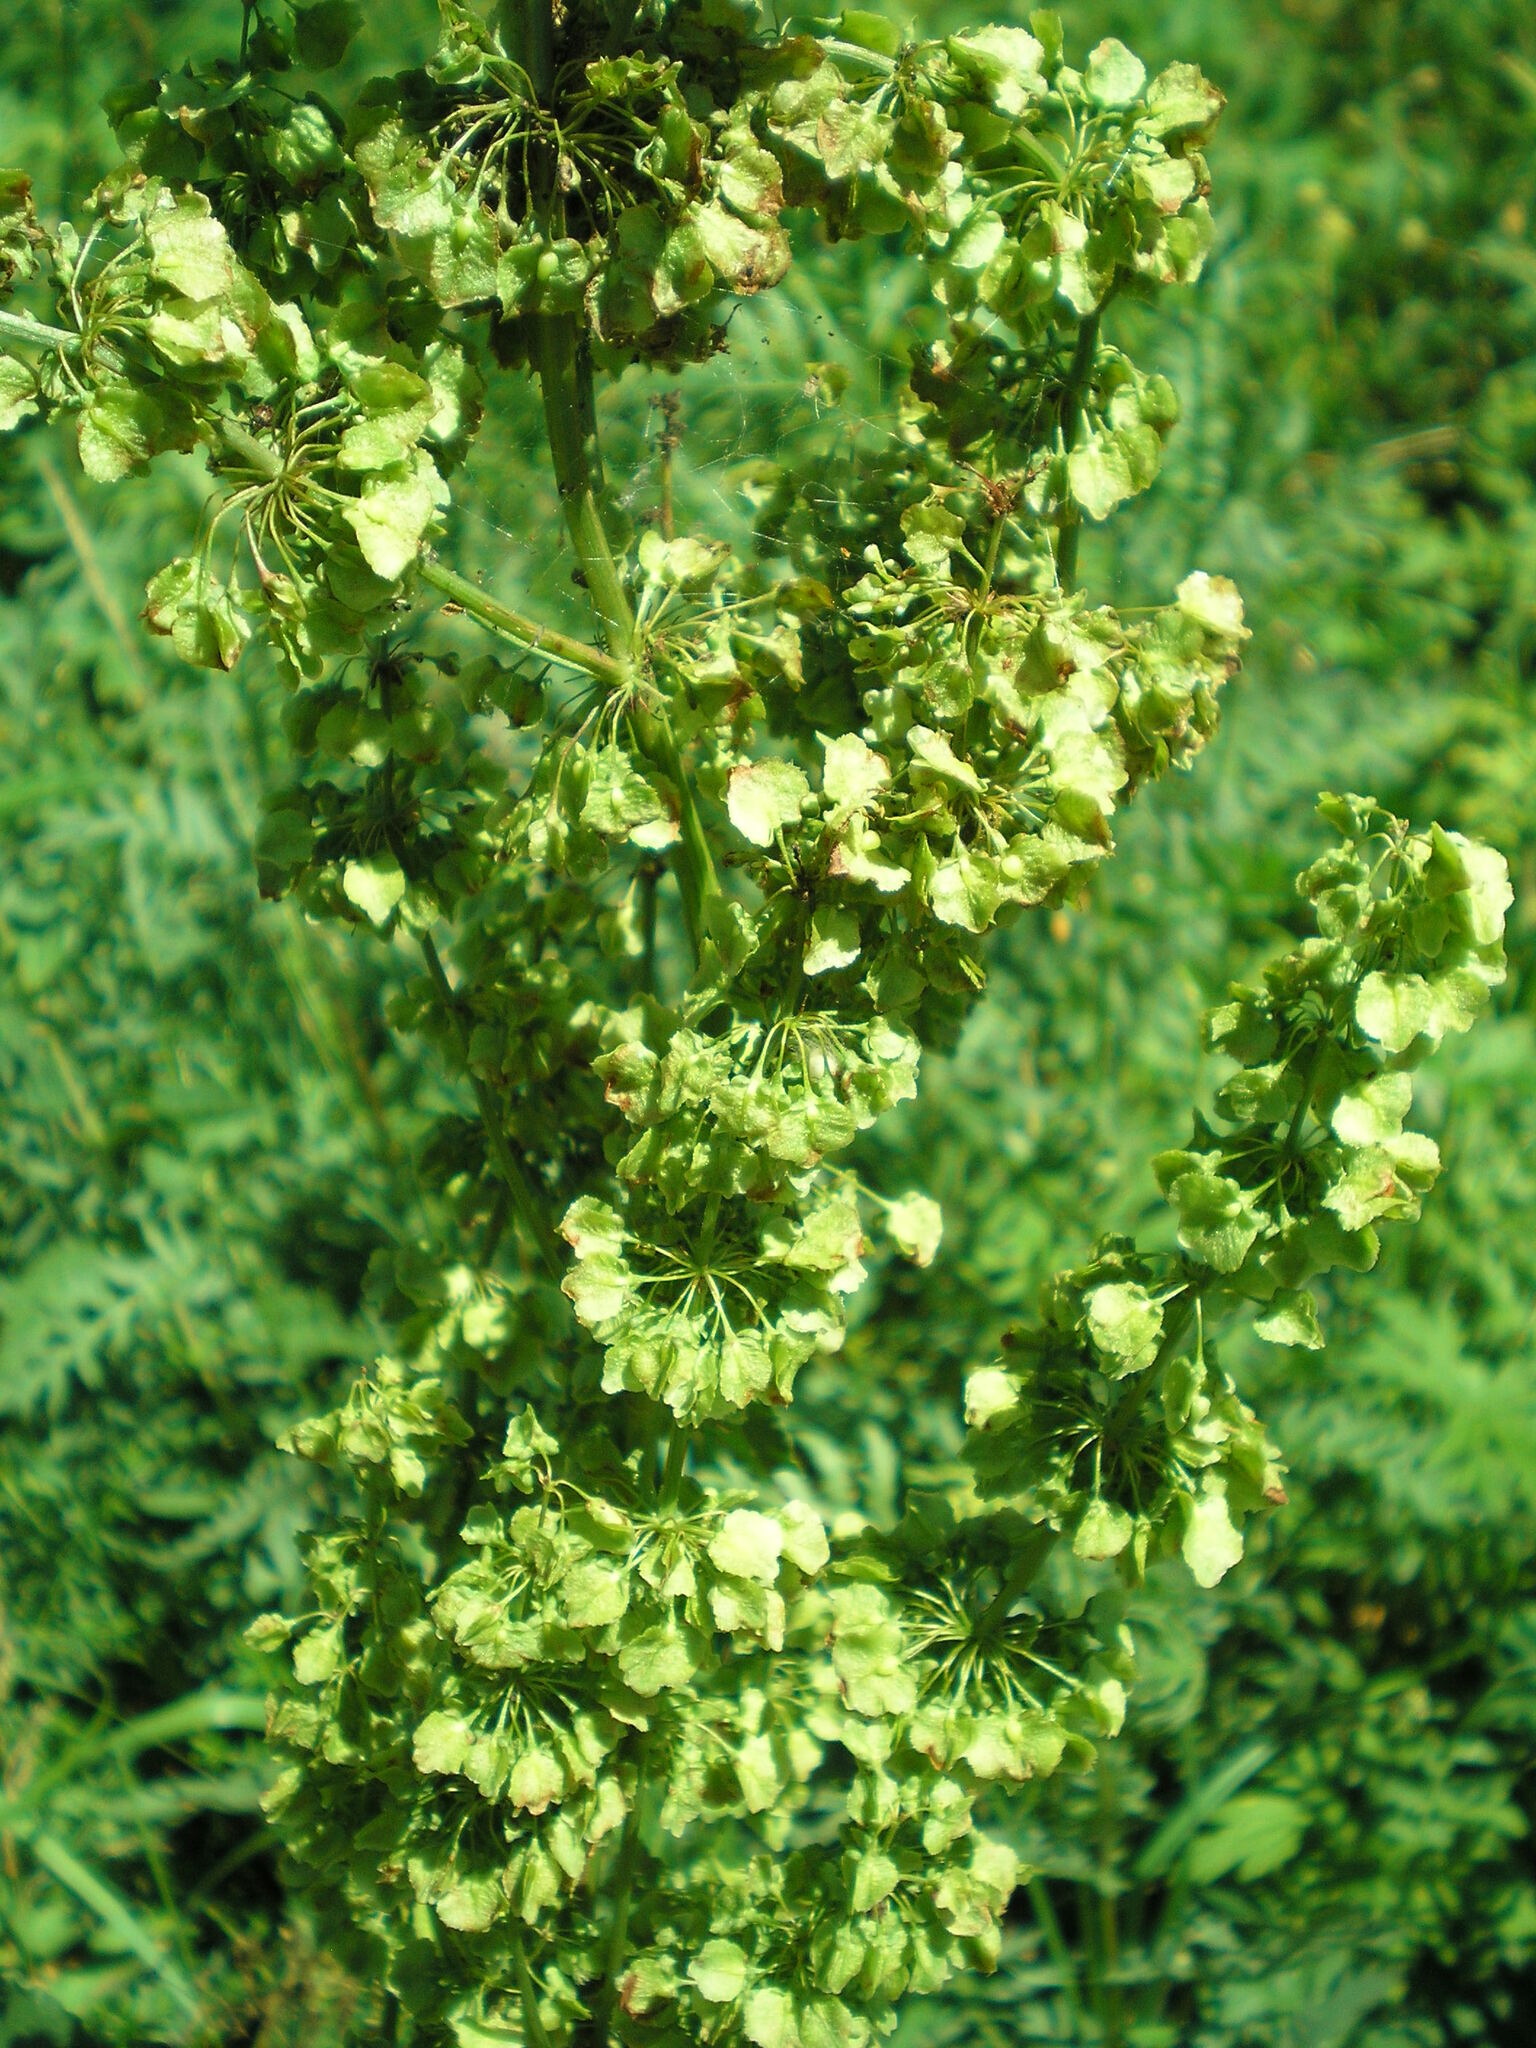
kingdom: Plantae
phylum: Tracheophyta
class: Magnoliopsida
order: Caryophyllales
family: Polygonaceae
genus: Rumex
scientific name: Rumex confertus
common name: Russian dock
